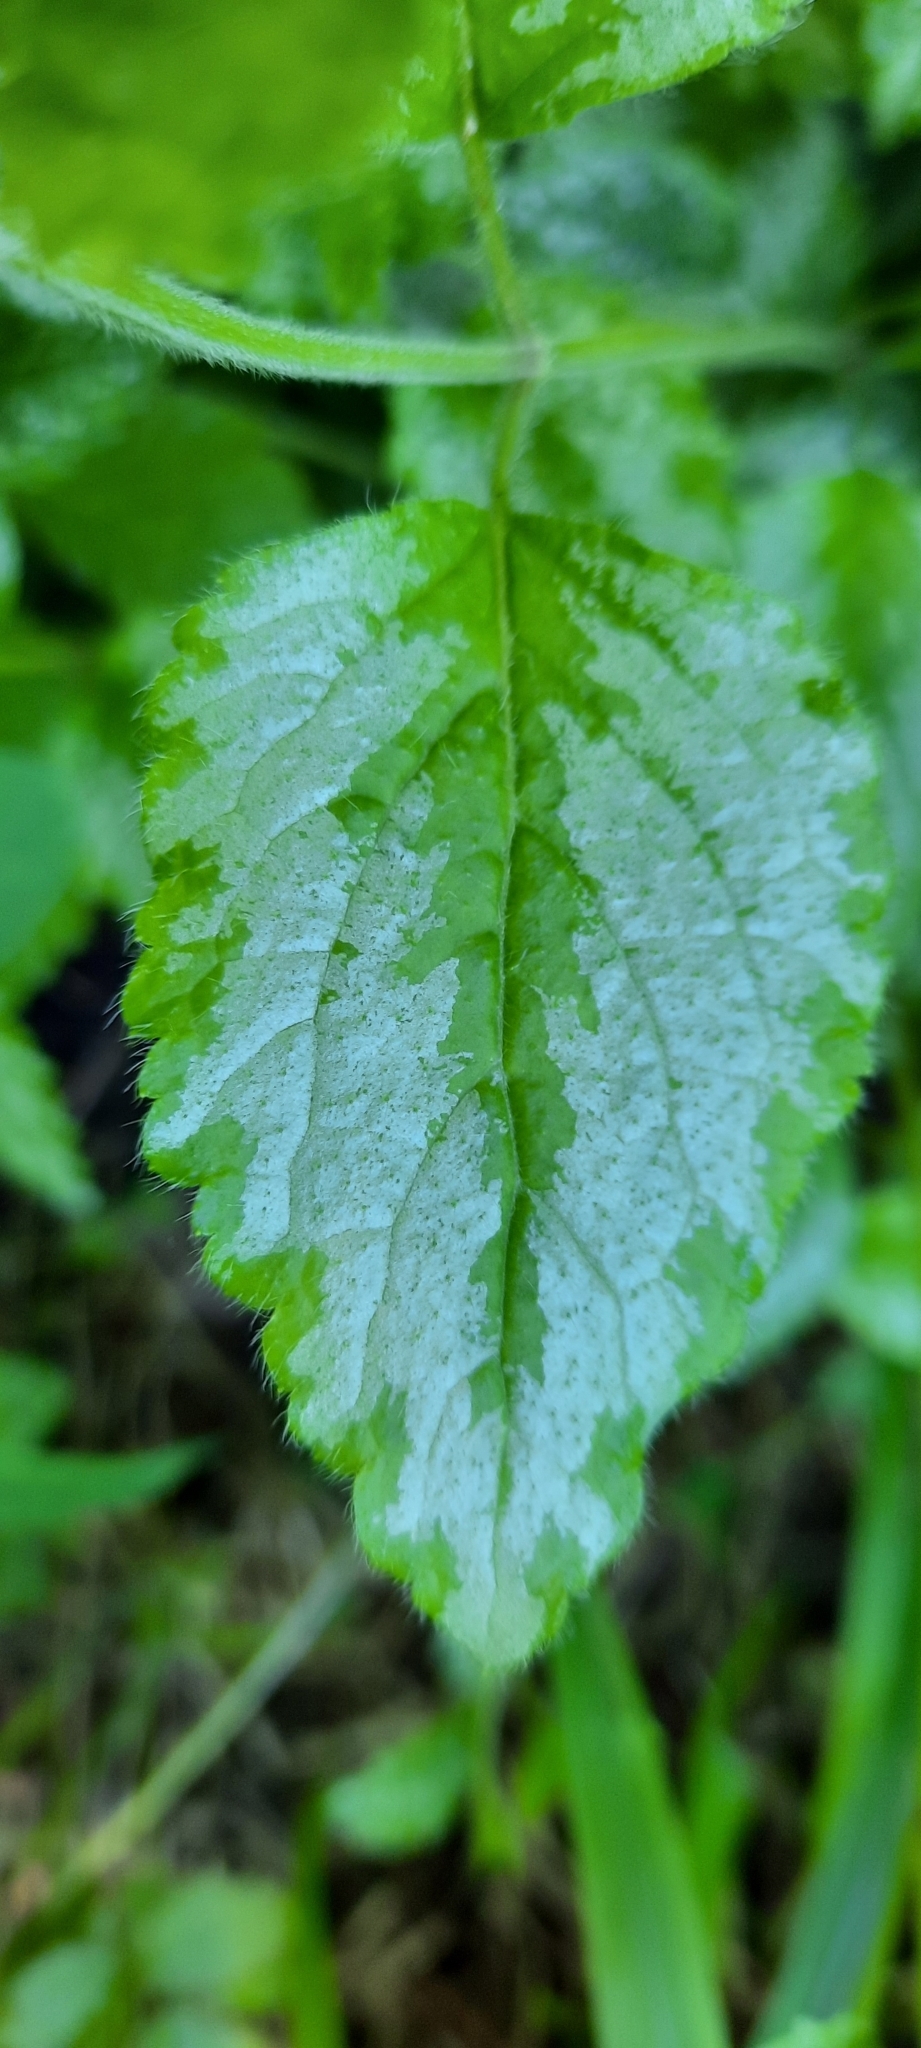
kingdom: Plantae
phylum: Tracheophyta
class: Magnoliopsida
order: Lamiales
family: Lamiaceae
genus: Lamium
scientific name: Lamium galeobdolon
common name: Yellow archangel
